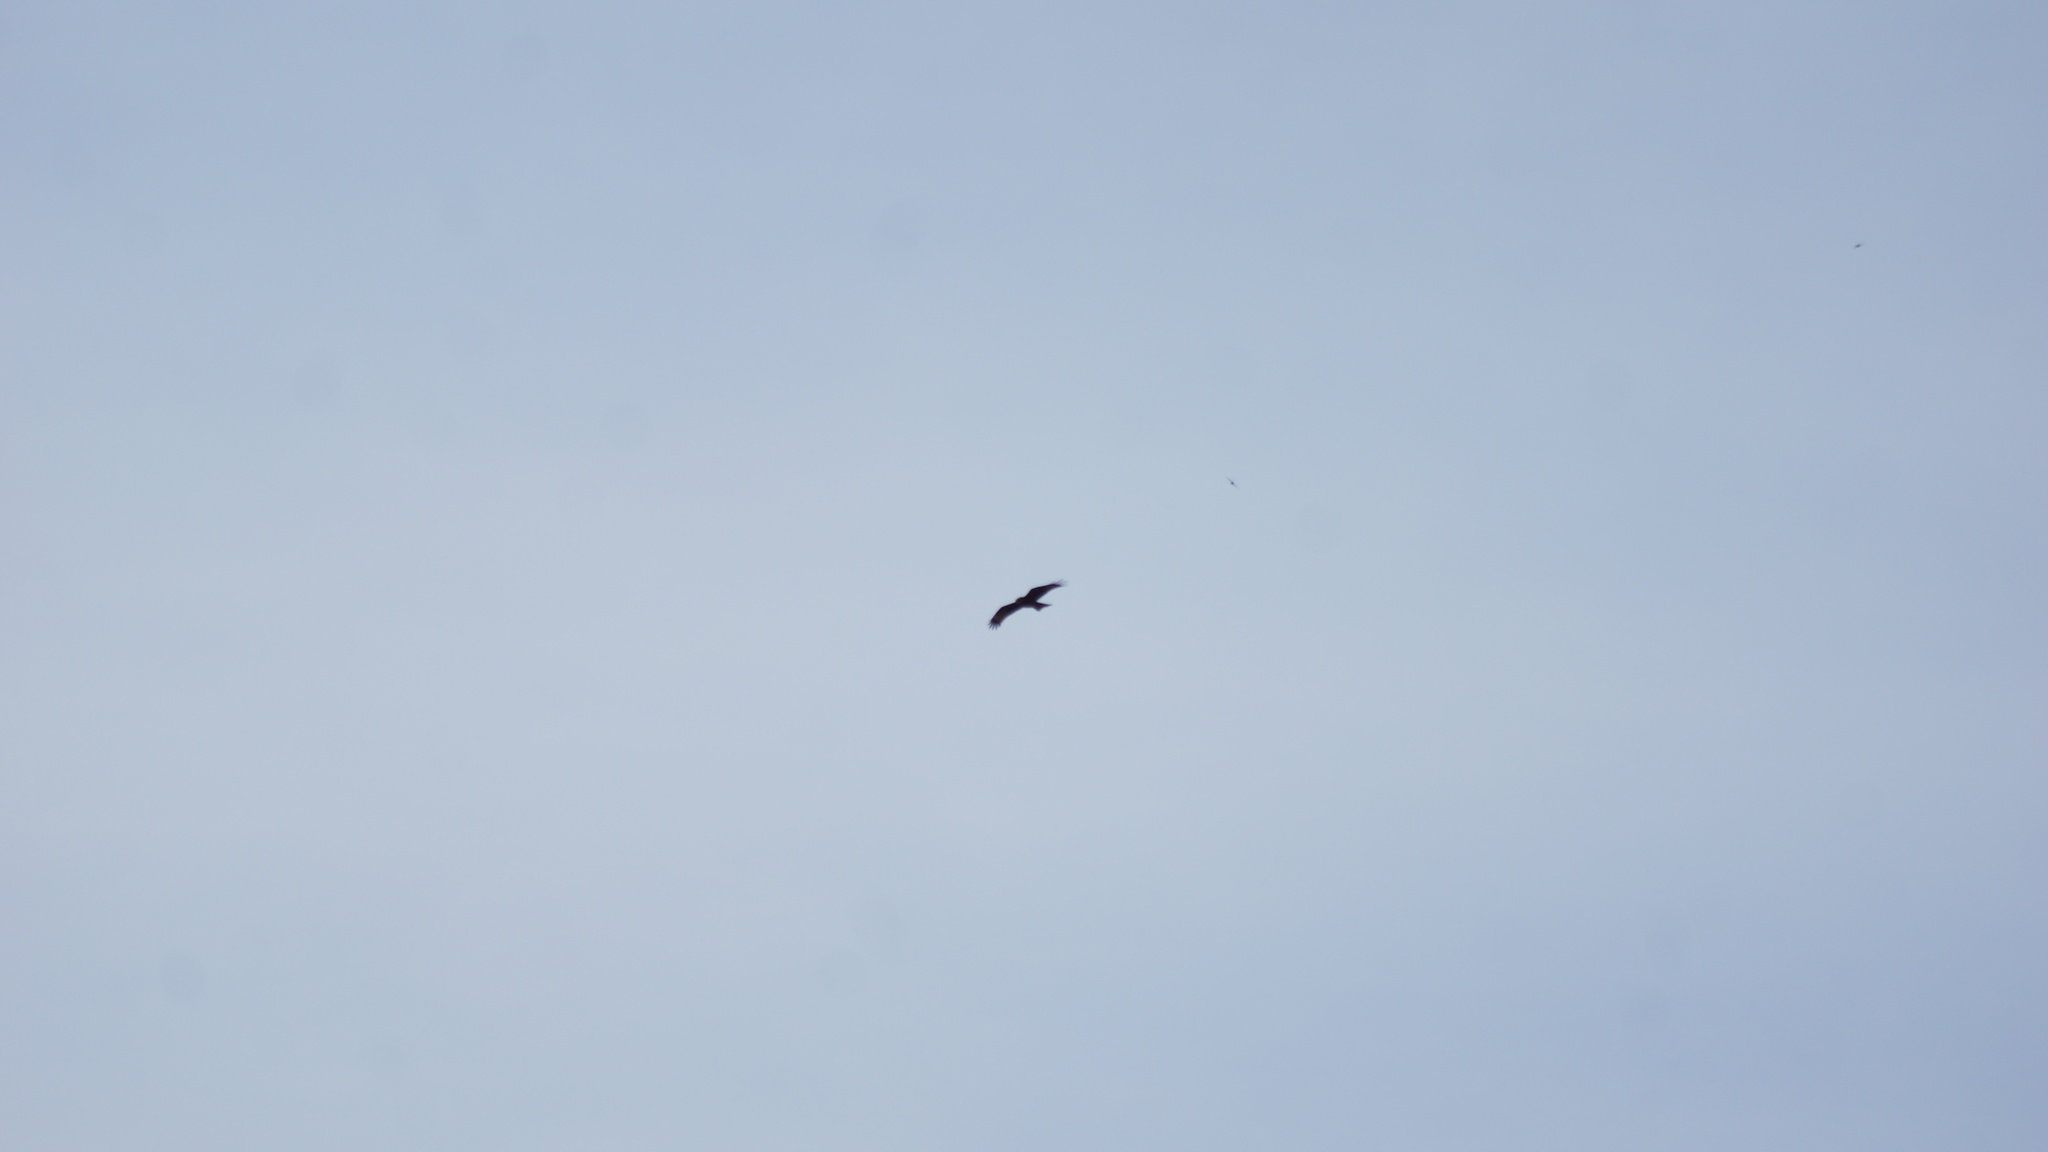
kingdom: Animalia
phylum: Chordata
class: Aves
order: Accipitriformes
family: Accipitridae
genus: Milvus
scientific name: Milvus migrans
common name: Black kite
